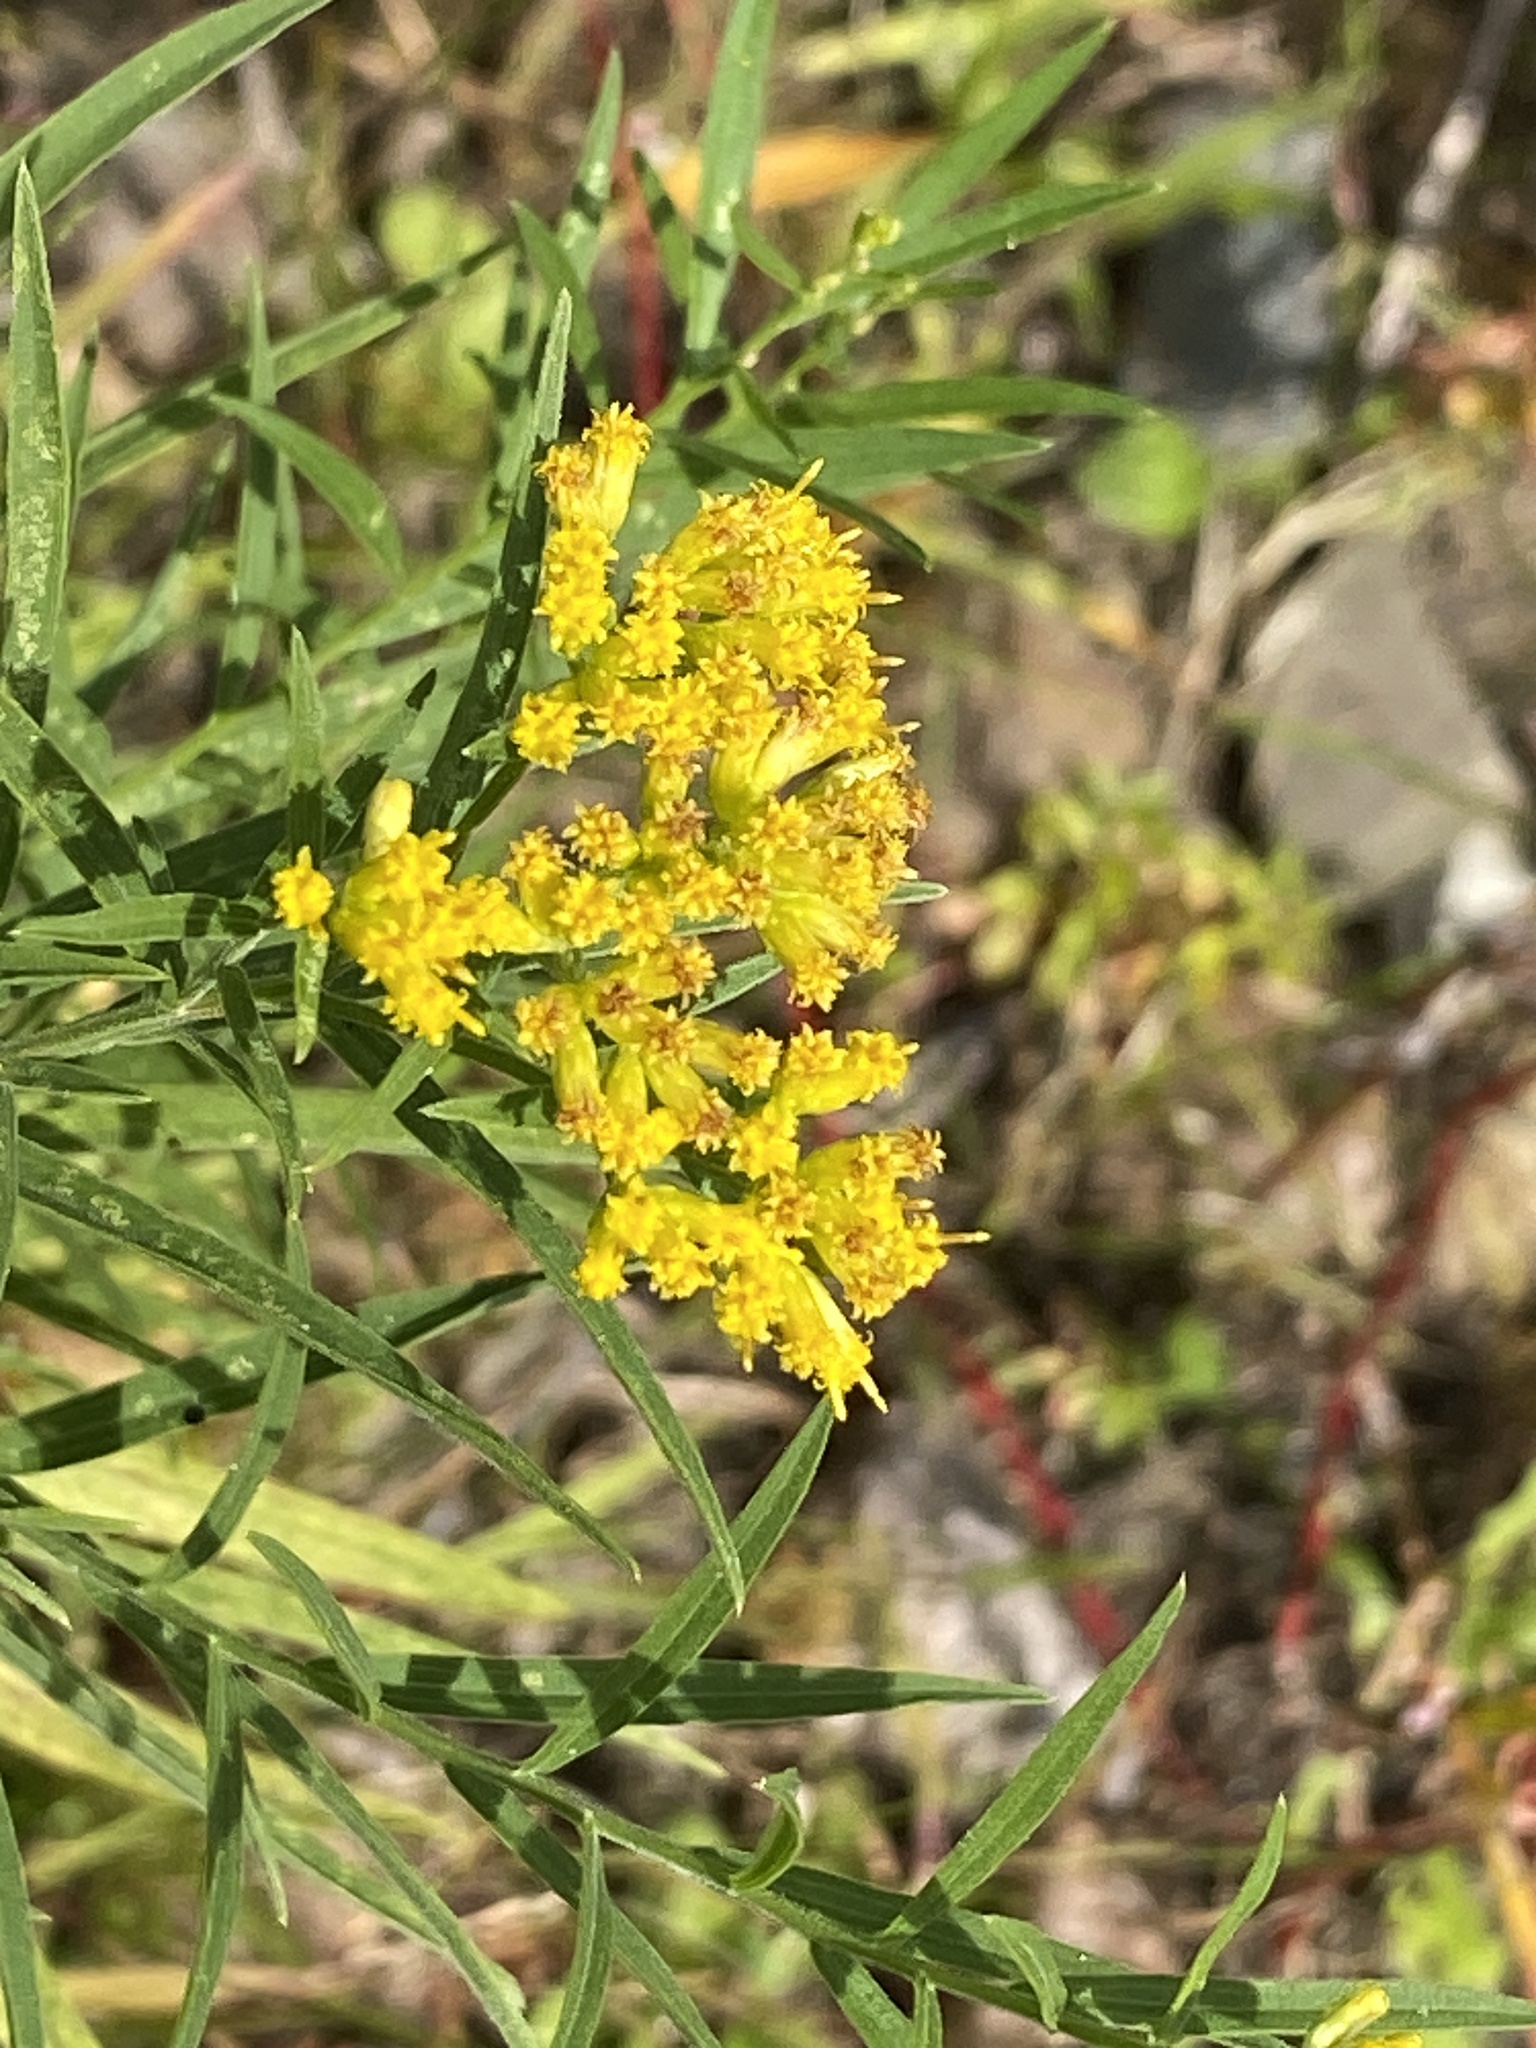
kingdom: Plantae
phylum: Tracheophyta
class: Magnoliopsida
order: Asterales
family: Asteraceae
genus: Euthamia
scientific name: Euthamia graminifolia
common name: Common goldentop
